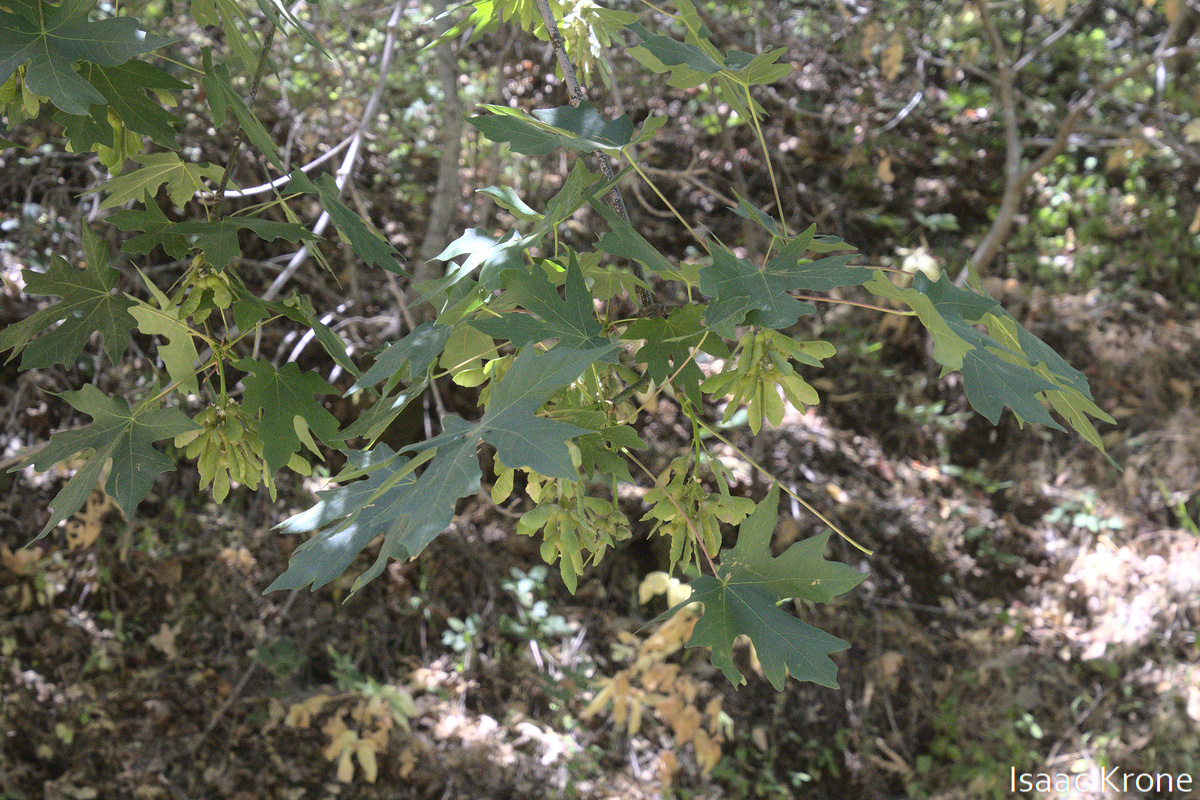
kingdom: Plantae
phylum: Tracheophyta
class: Magnoliopsida
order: Sapindales
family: Sapindaceae
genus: Acer
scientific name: Acer macrophyllum
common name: Oregon maple
